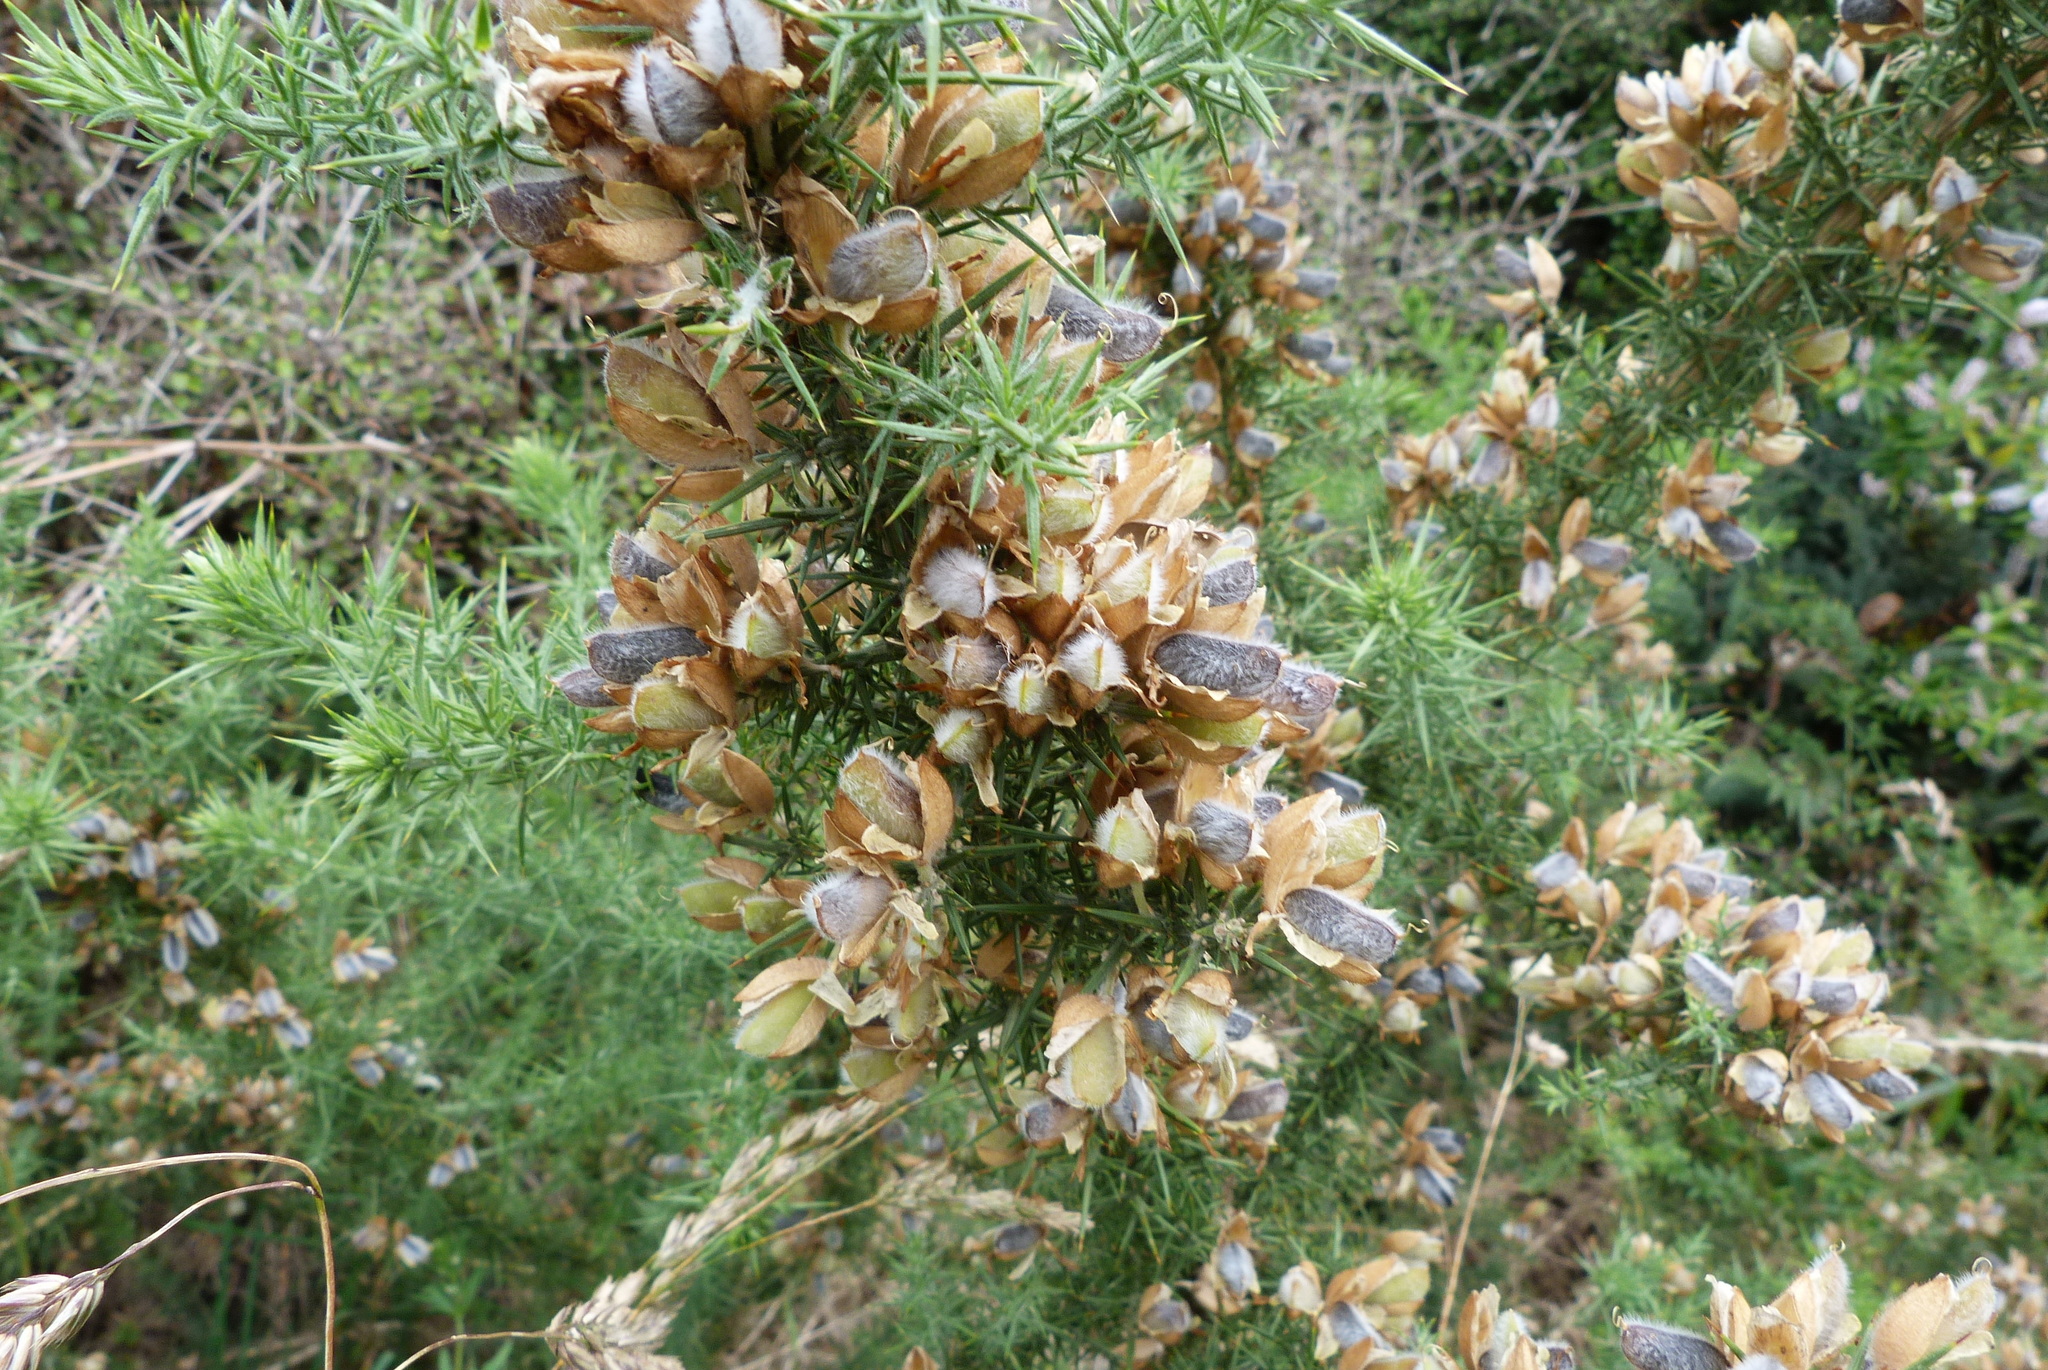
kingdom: Plantae
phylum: Tracheophyta
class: Magnoliopsida
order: Fabales
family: Fabaceae
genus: Ulex
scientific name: Ulex europaeus
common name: Common gorse
